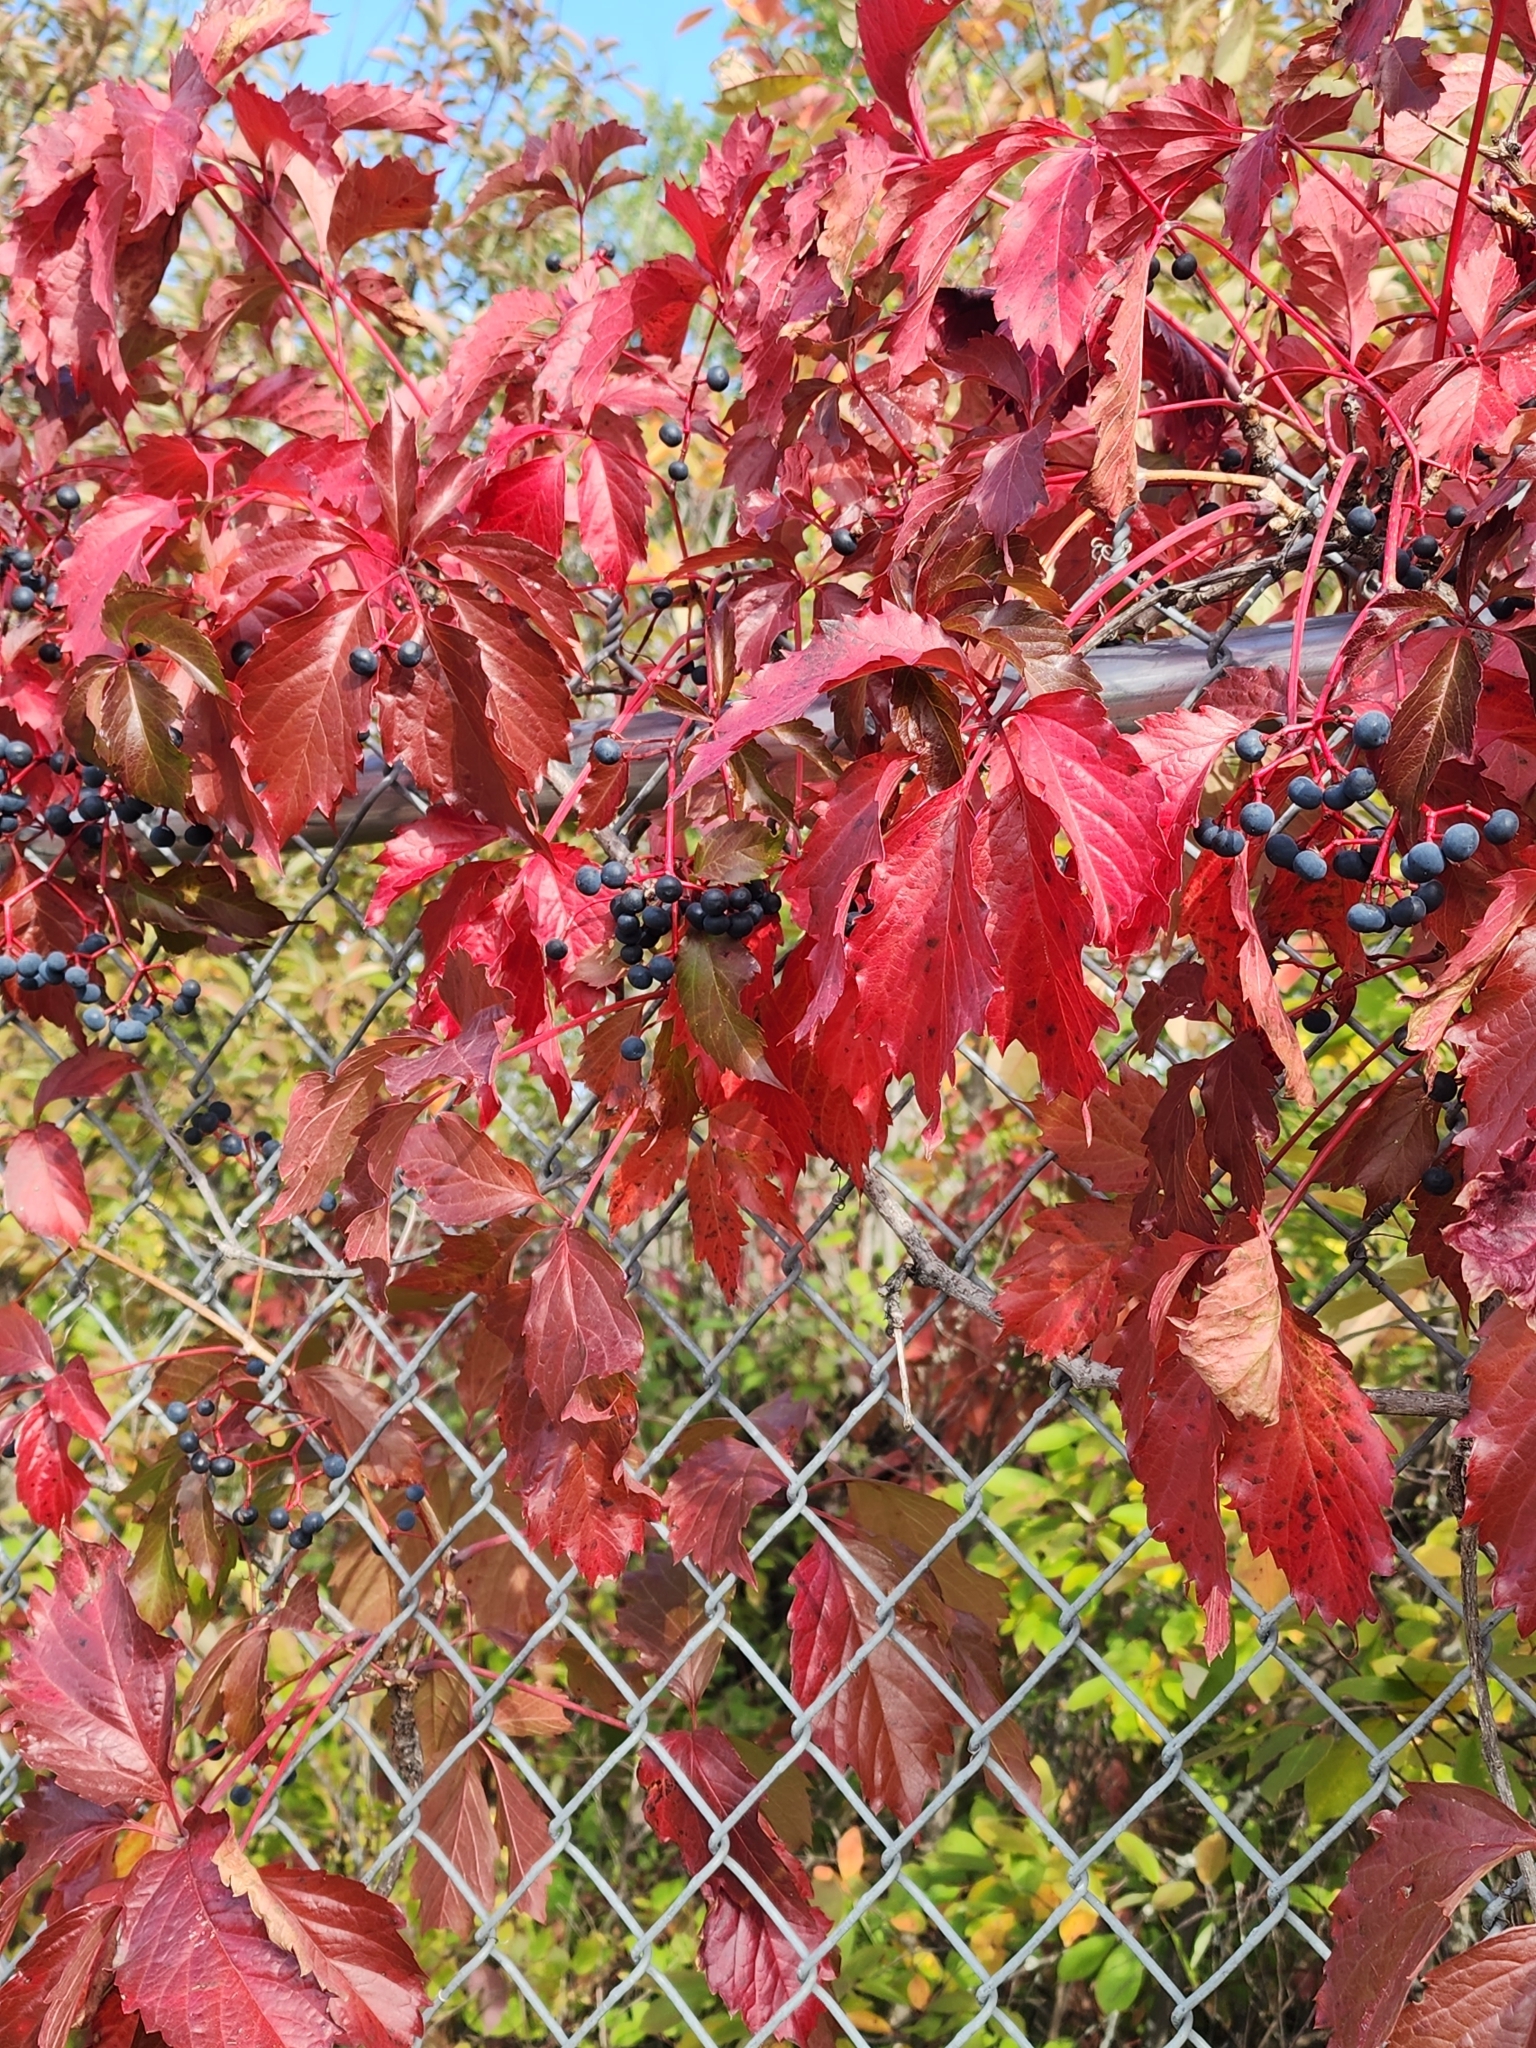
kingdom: Plantae
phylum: Tracheophyta
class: Magnoliopsida
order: Vitales
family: Vitaceae
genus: Parthenocissus
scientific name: Parthenocissus inserta
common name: False virginia-creeper
